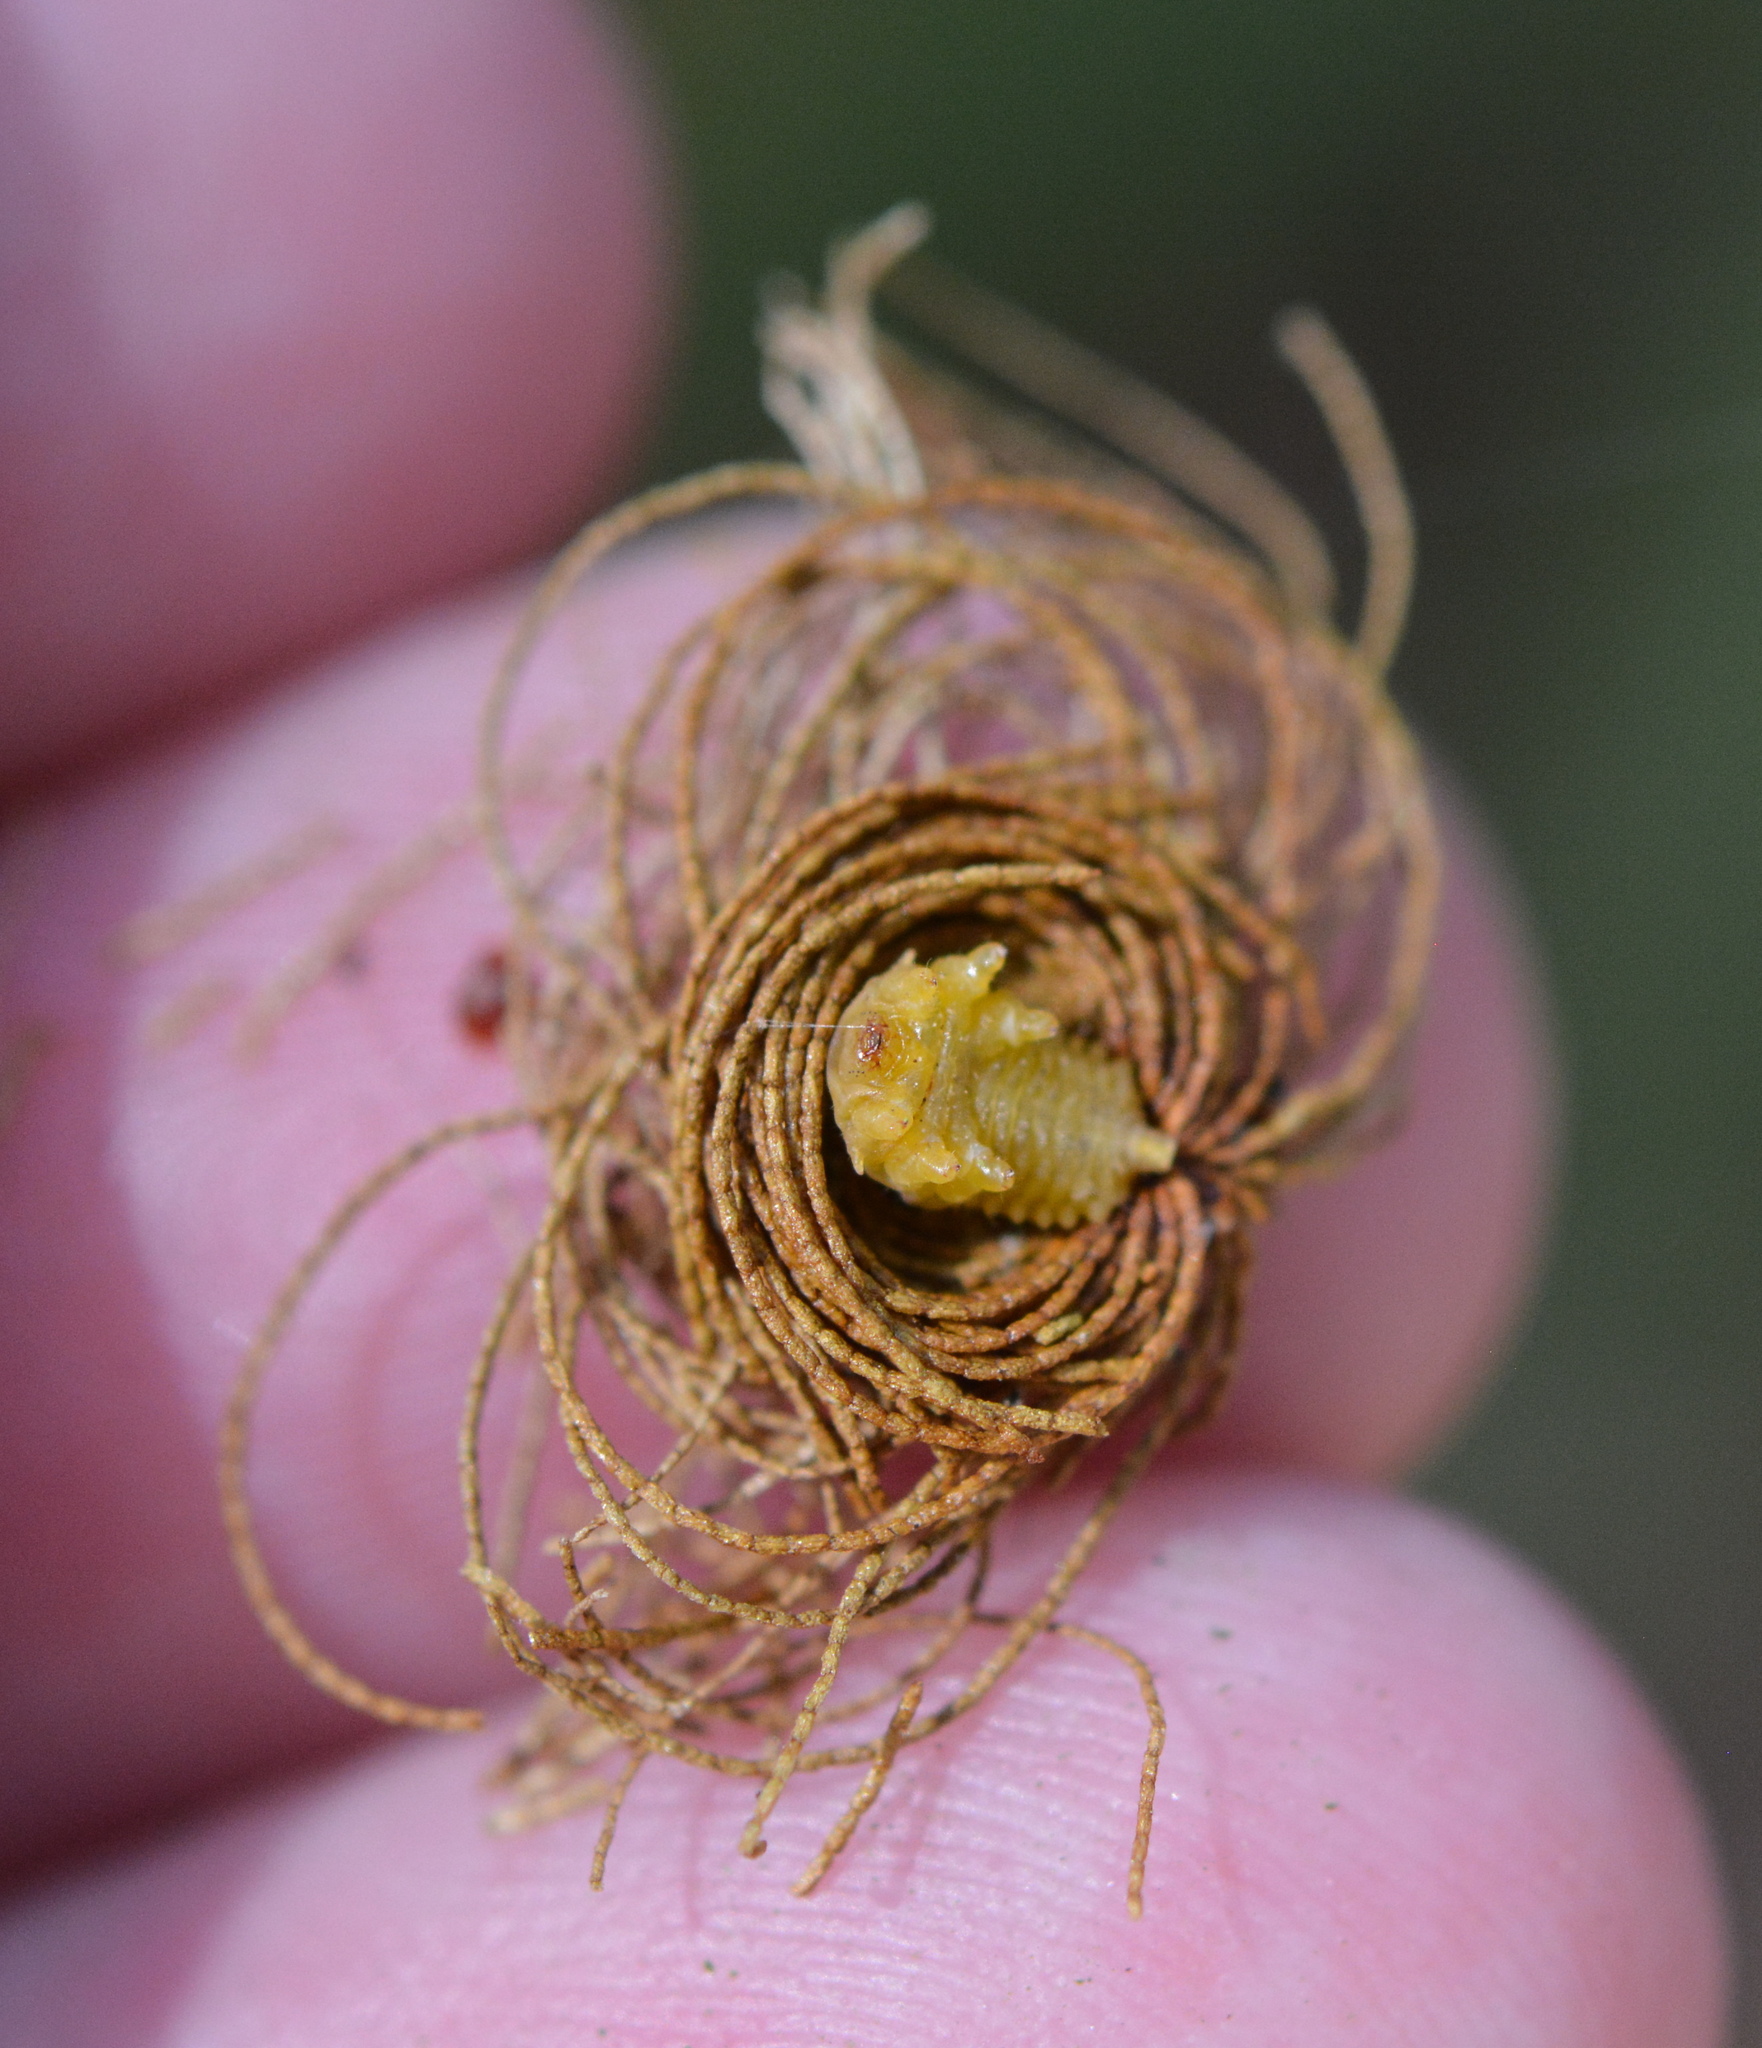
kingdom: Animalia
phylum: Arthropoda
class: Insecta
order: Coleoptera
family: Chrysomelidae
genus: Hemisphaerota
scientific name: Hemisphaerota cyanea
